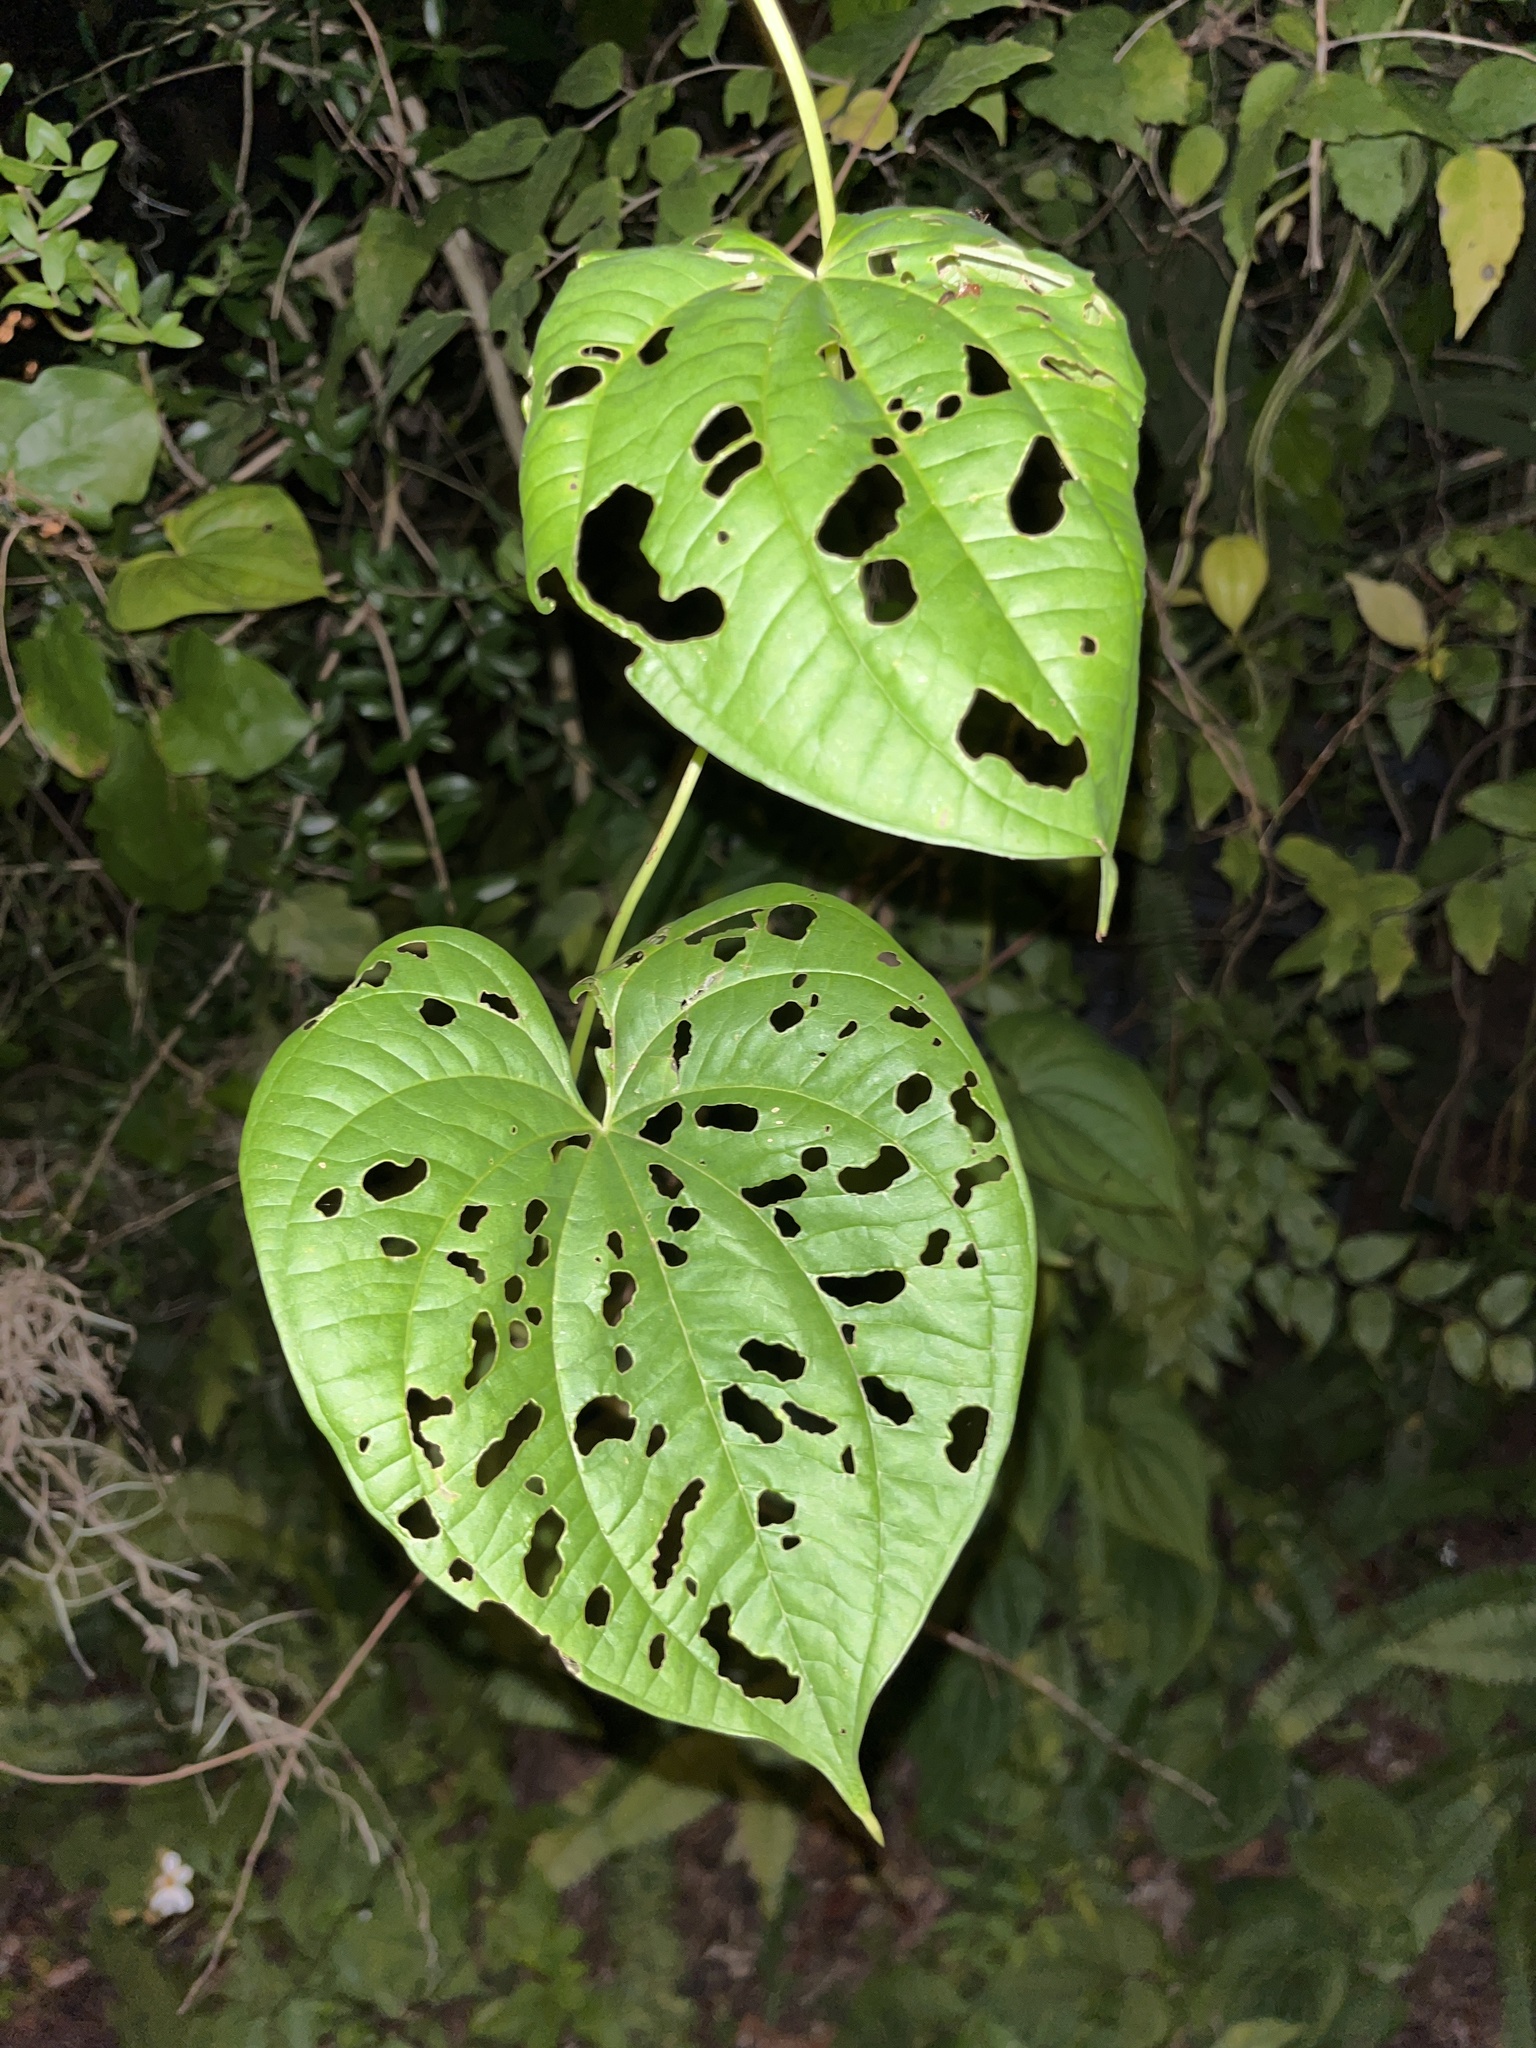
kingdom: Plantae
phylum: Tracheophyta
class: Liliopsida
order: Dioscoreales
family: Dioscoreaceae
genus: Dioscorea
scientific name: Dioscorea bulbifera
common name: Air yam
